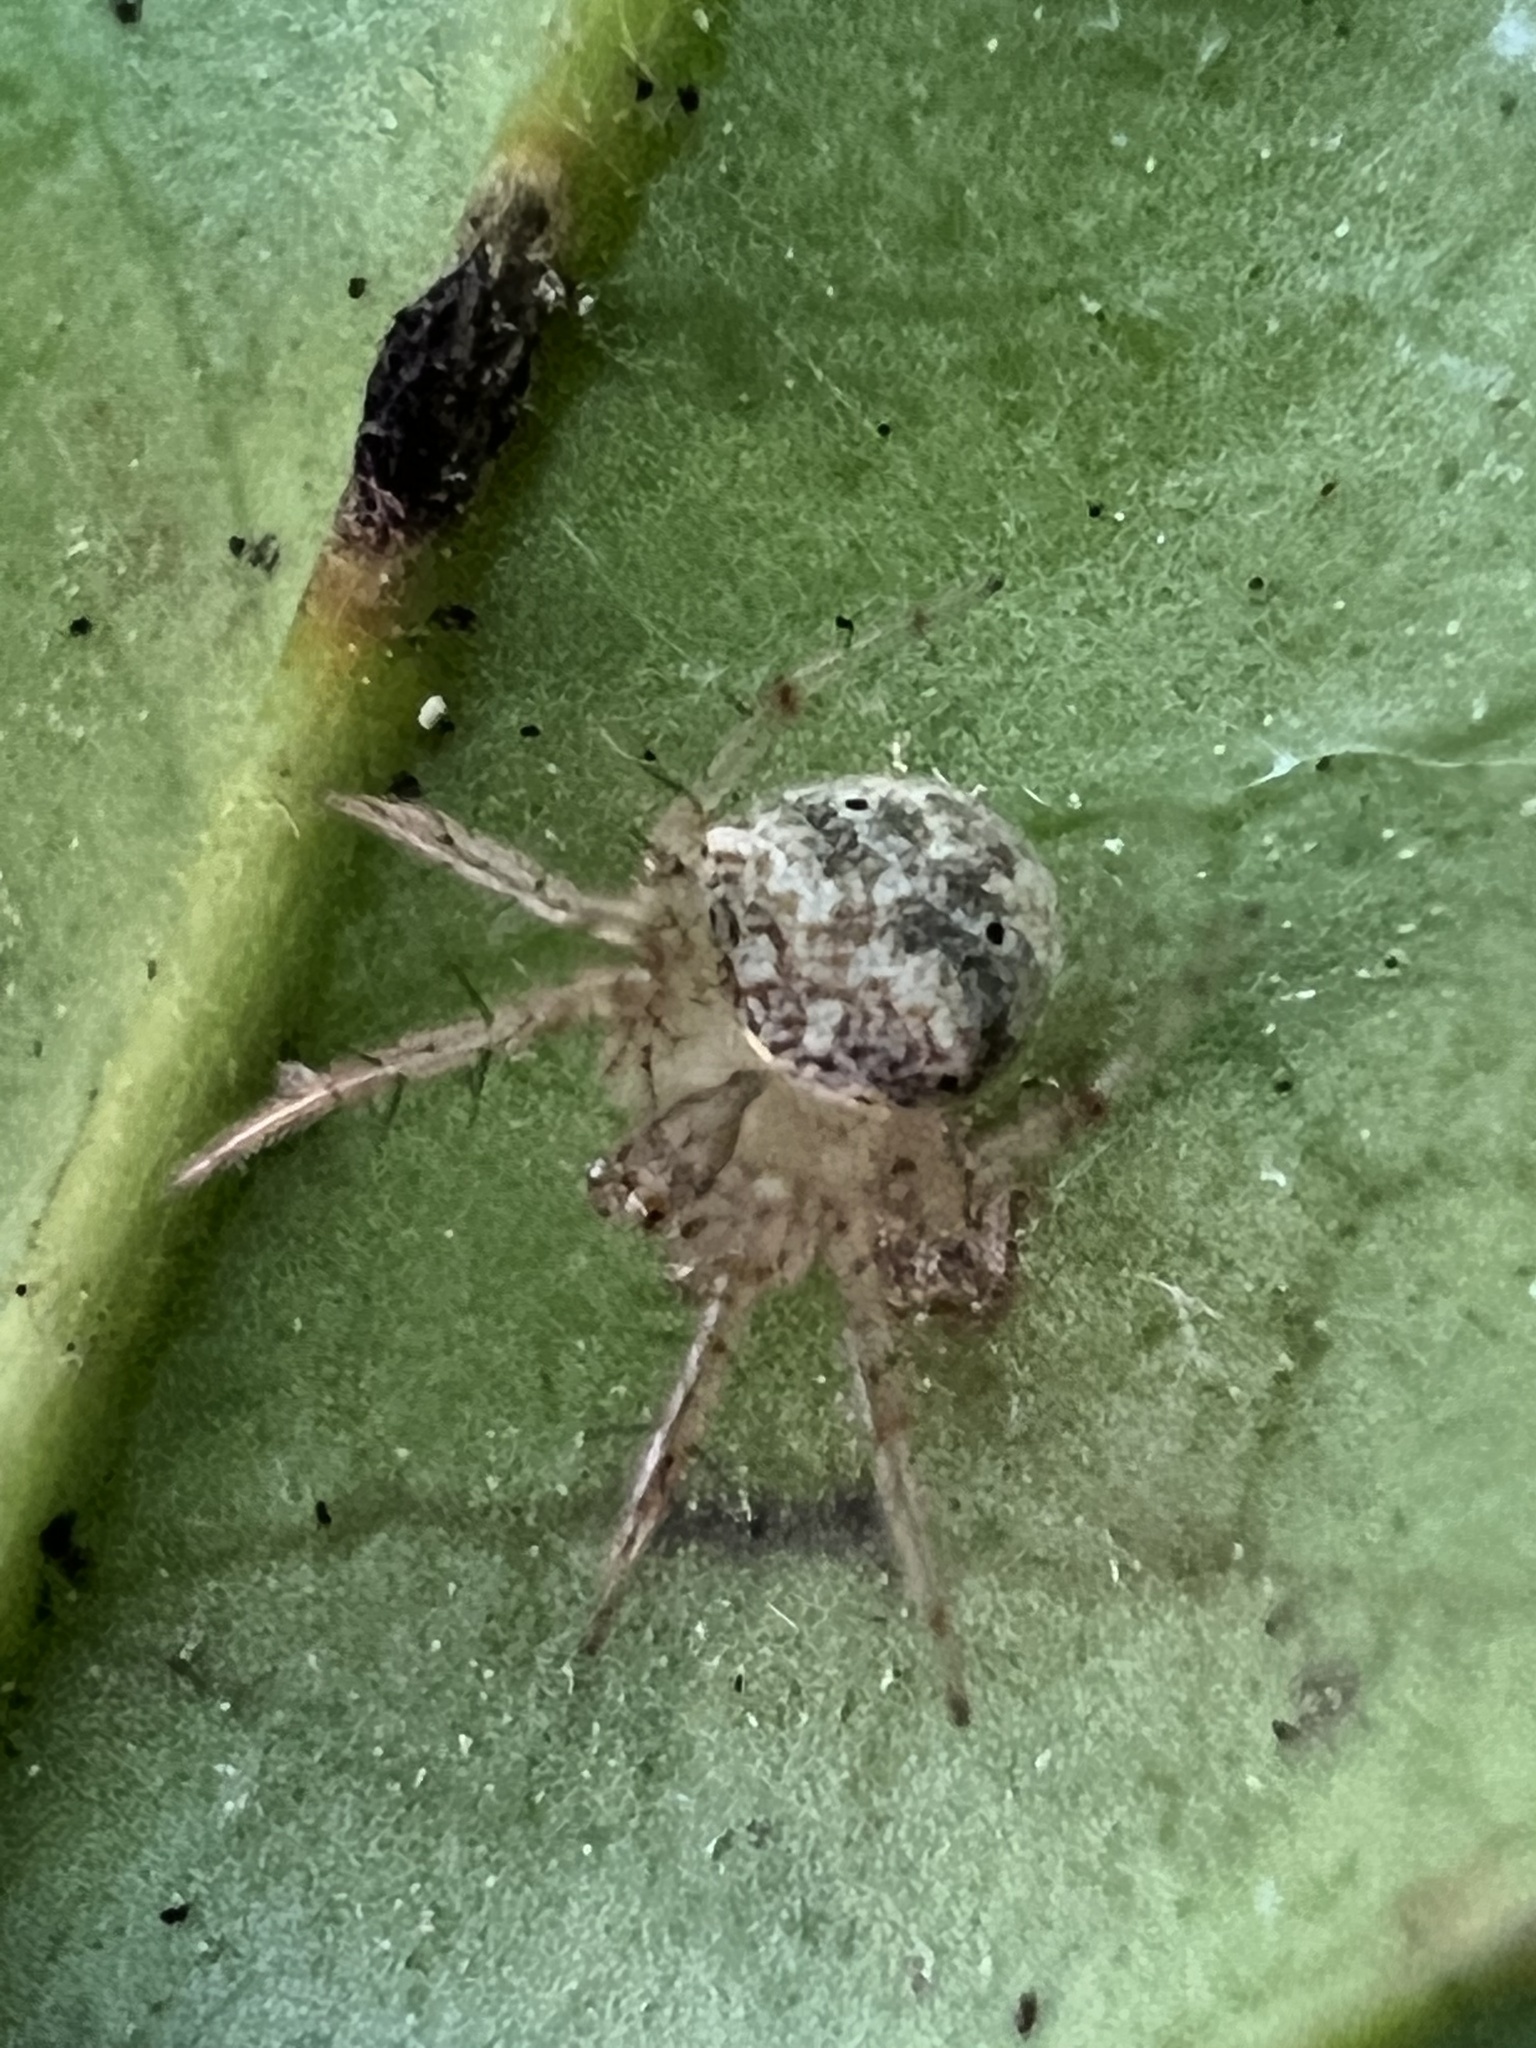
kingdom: Animalia
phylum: Arthropoda
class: Arachnida
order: Araneae
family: Araneidae
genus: Araneus
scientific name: Araneus miniatus
